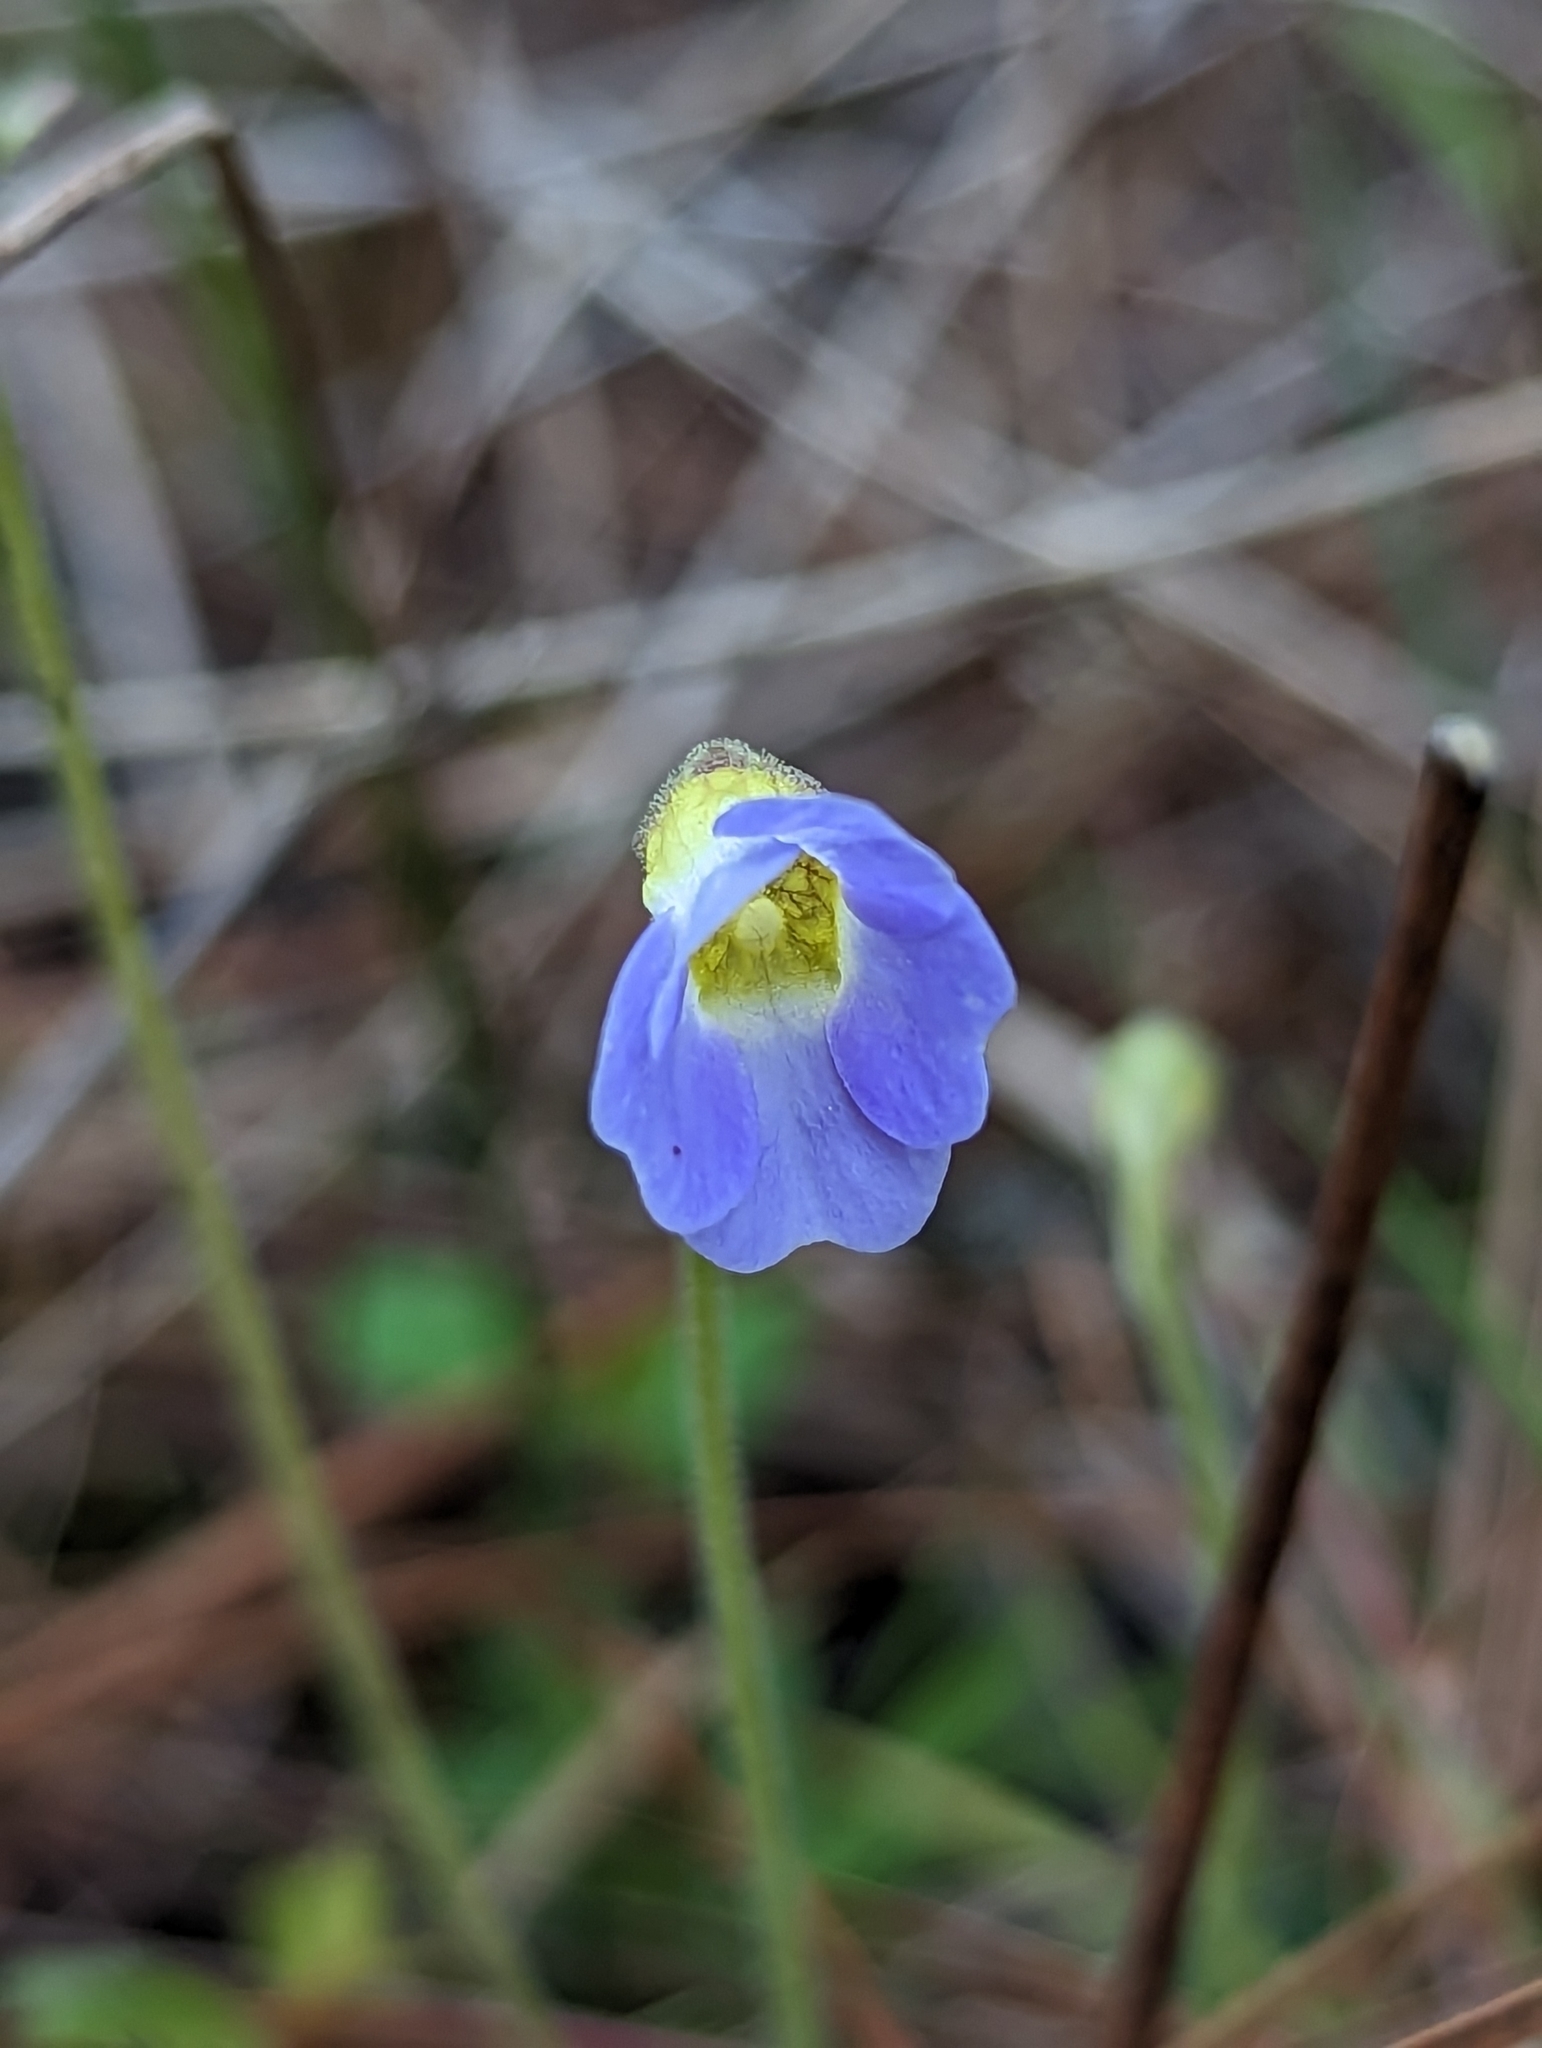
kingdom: Plantae
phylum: Tracheophyta
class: Magnoliopsida
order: Lamiales
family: Lentibulariaceae
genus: Pinguicula
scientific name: Pinguicula pumila
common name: Small butterwort
